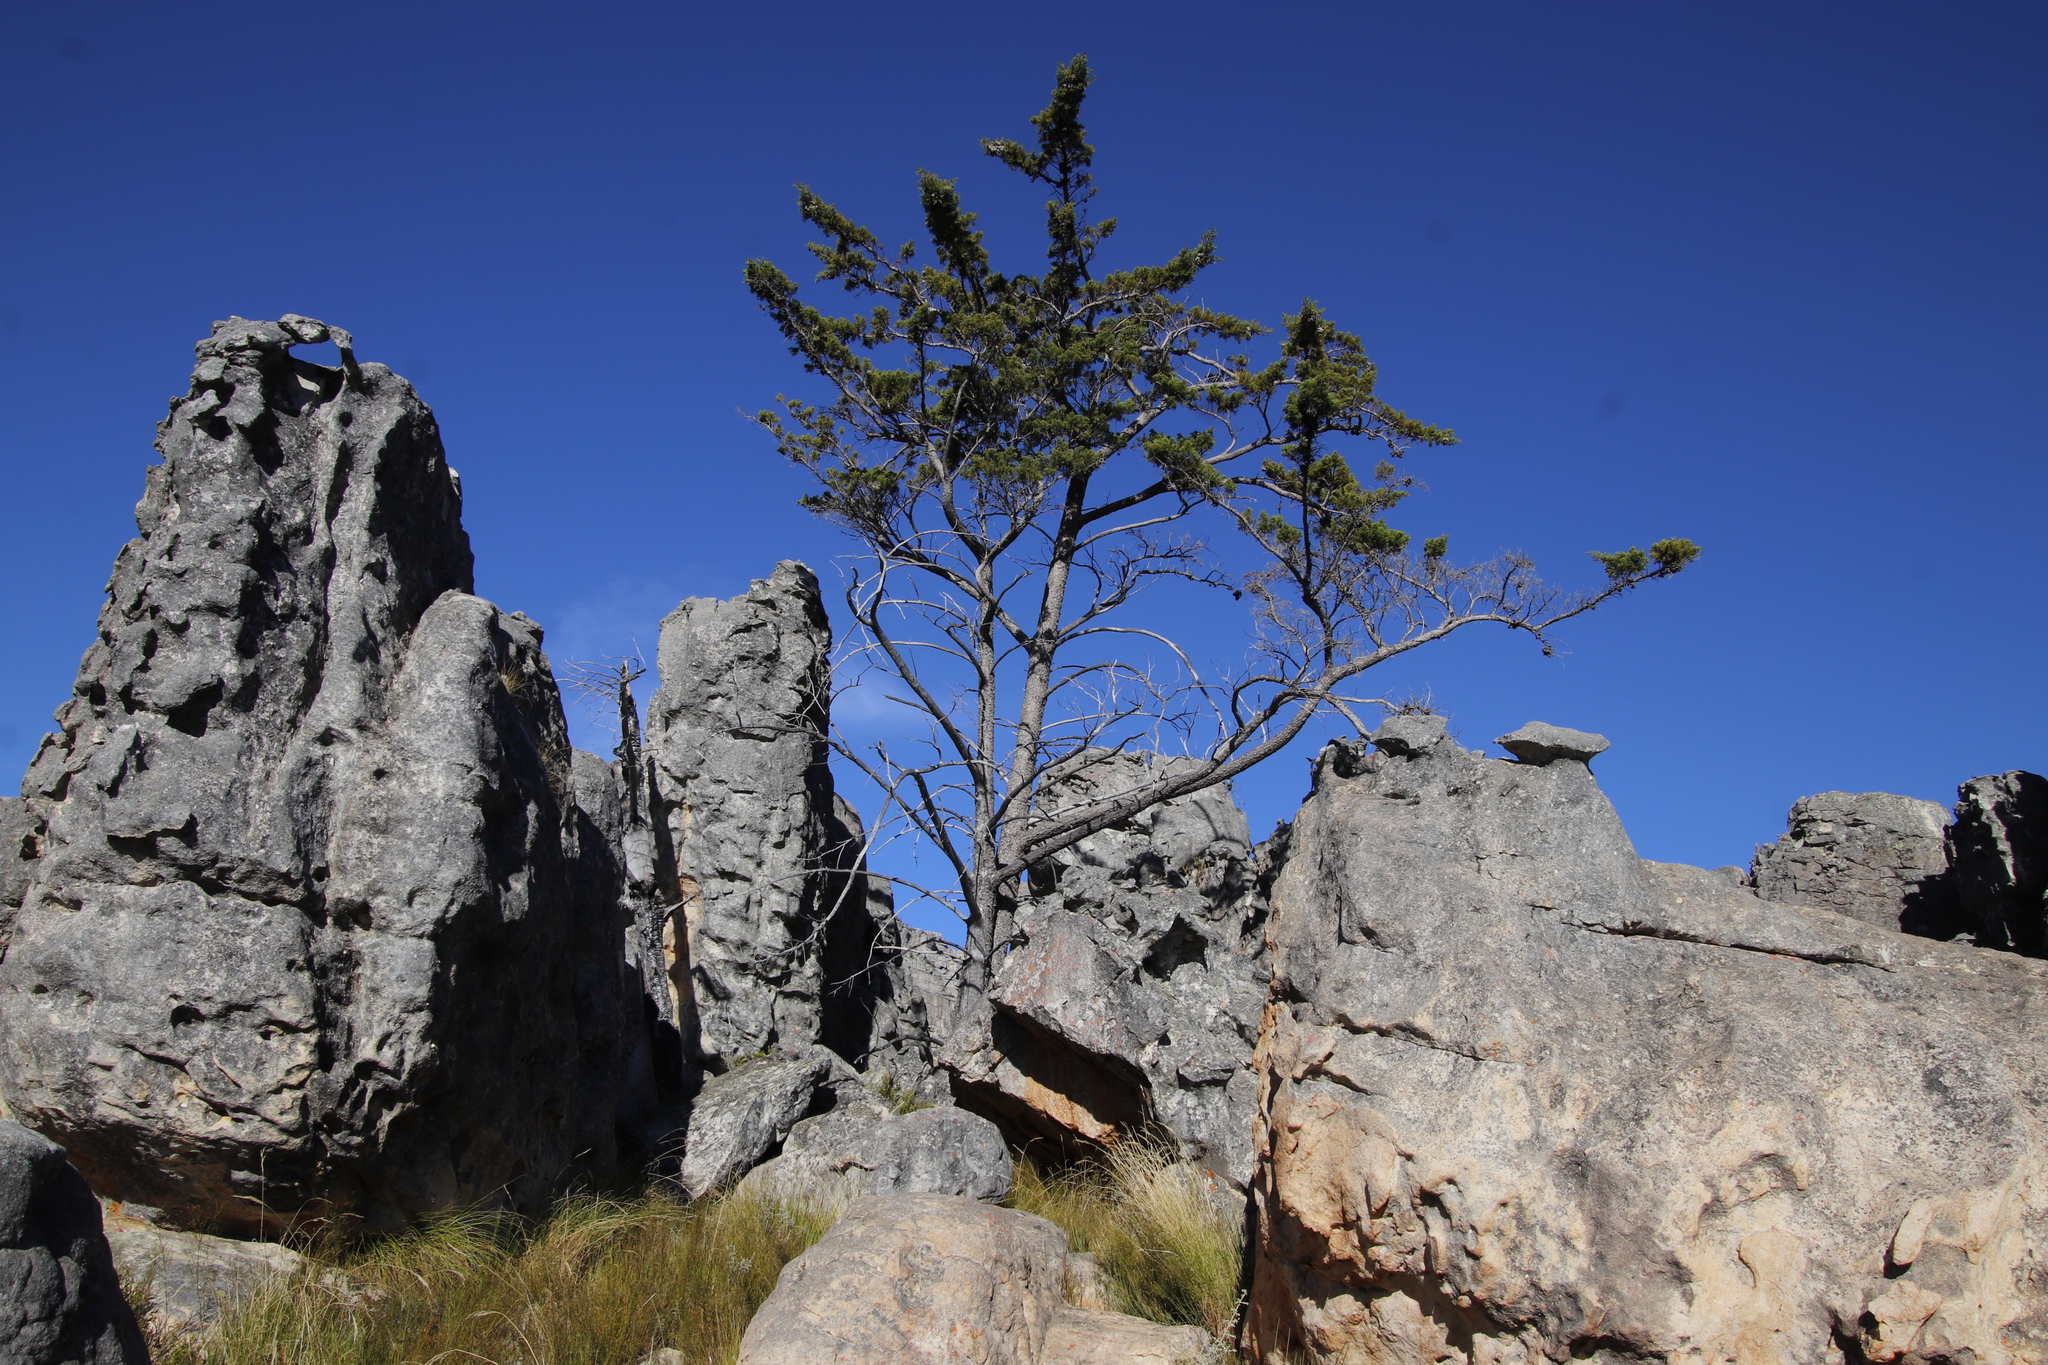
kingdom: Plantae
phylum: Tracheophyta
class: Pinopsida
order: Pinales
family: Cupressaceae
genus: Widdringtonia
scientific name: Widdringtonia nodiflora
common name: Cape cypress
